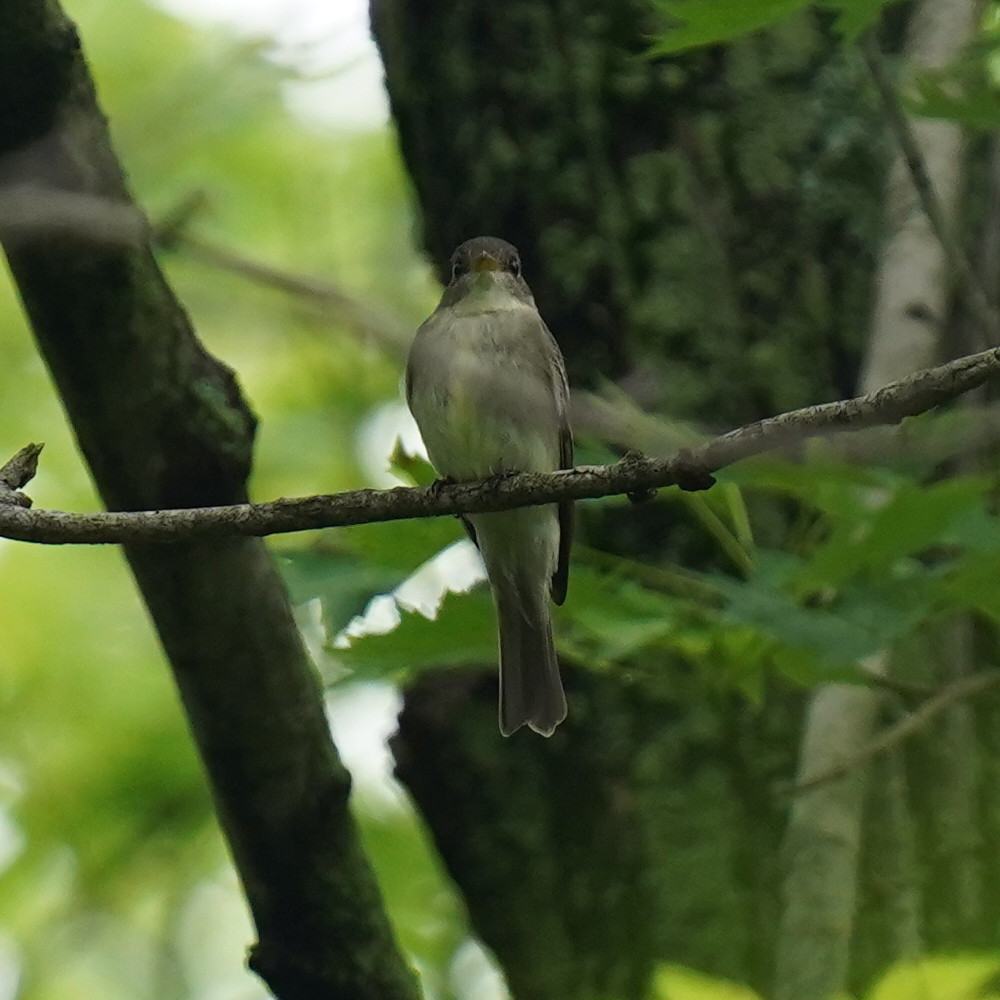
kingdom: Animalia
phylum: Chordata
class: Aves
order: Passeriformes
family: Tyrannidae
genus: Contopus
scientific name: Contopus virens
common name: Eastern wood-pewee
